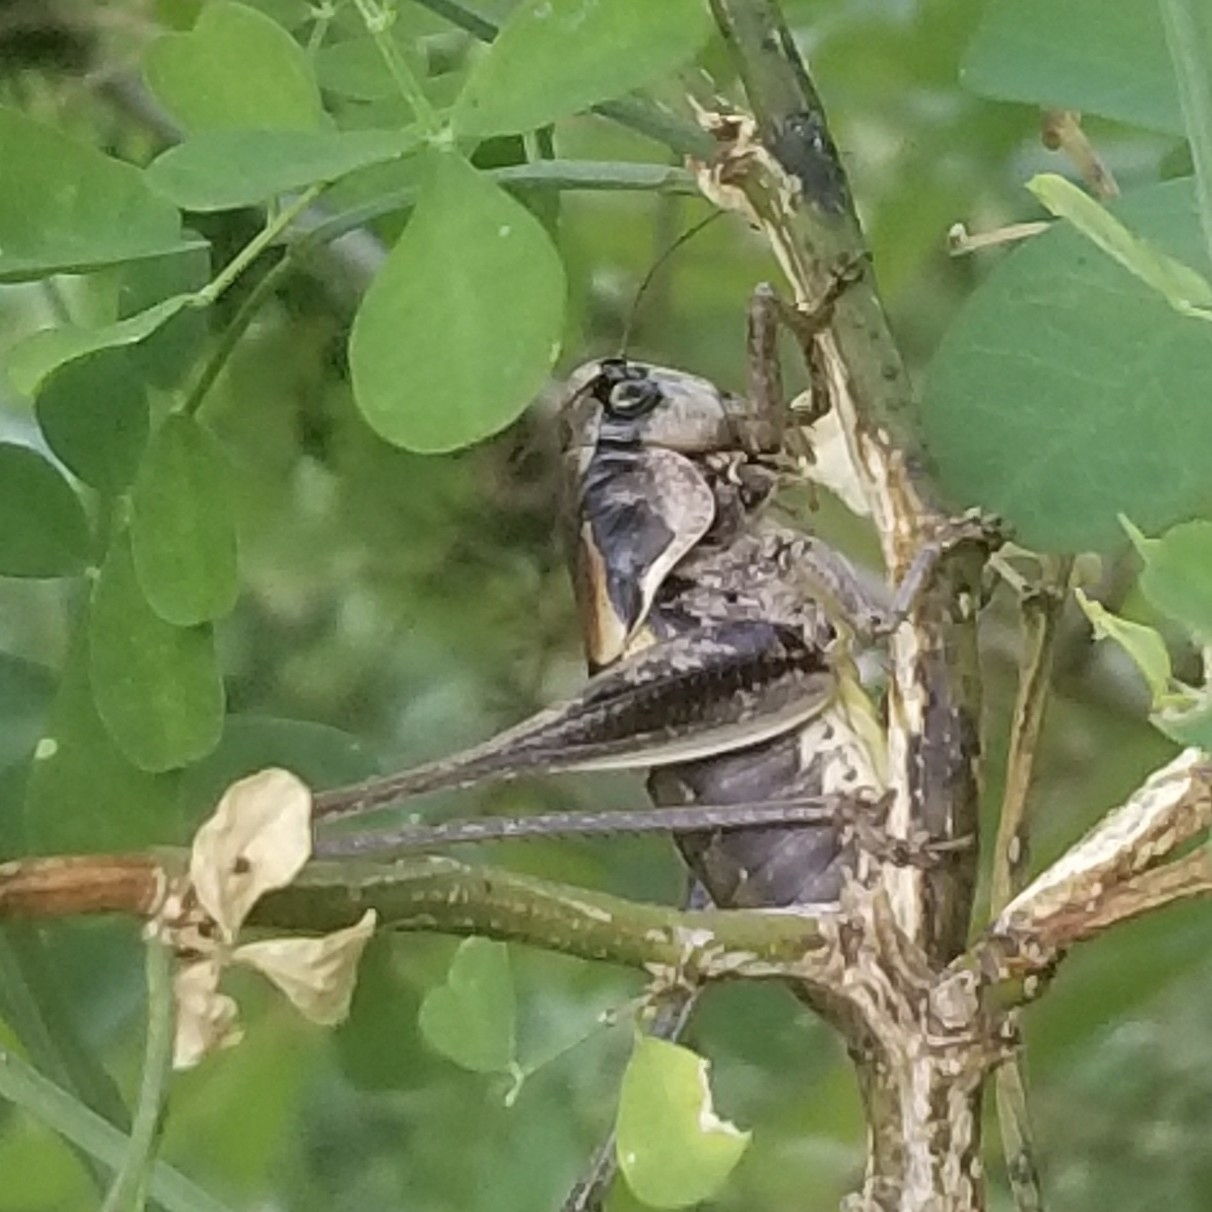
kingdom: Animalia
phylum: Arthropoda
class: Insecta
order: Orthoptera
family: Tettigoniidae
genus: Pholidoptera
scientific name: Pholidoptera dalmatica
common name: Dalmatian dark bush-cricket
